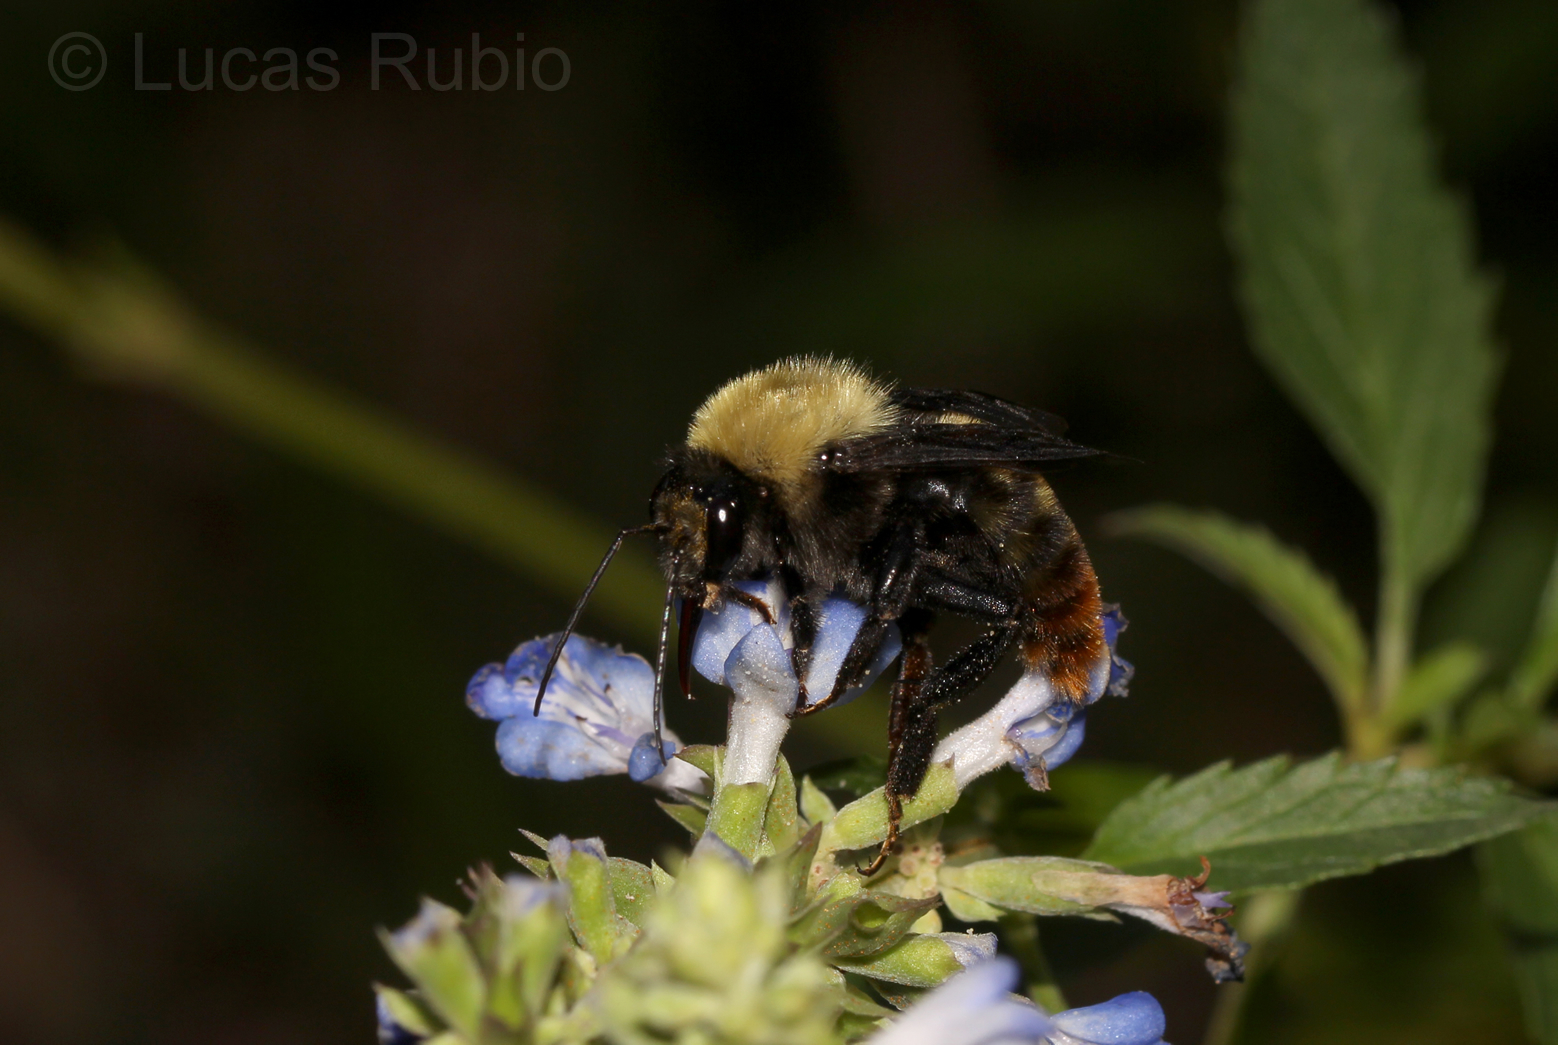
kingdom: Animalia
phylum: Arthropoda
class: Insecta
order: Hymenoptera
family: Apidae
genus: Bombus
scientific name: Bombus bellicosus
